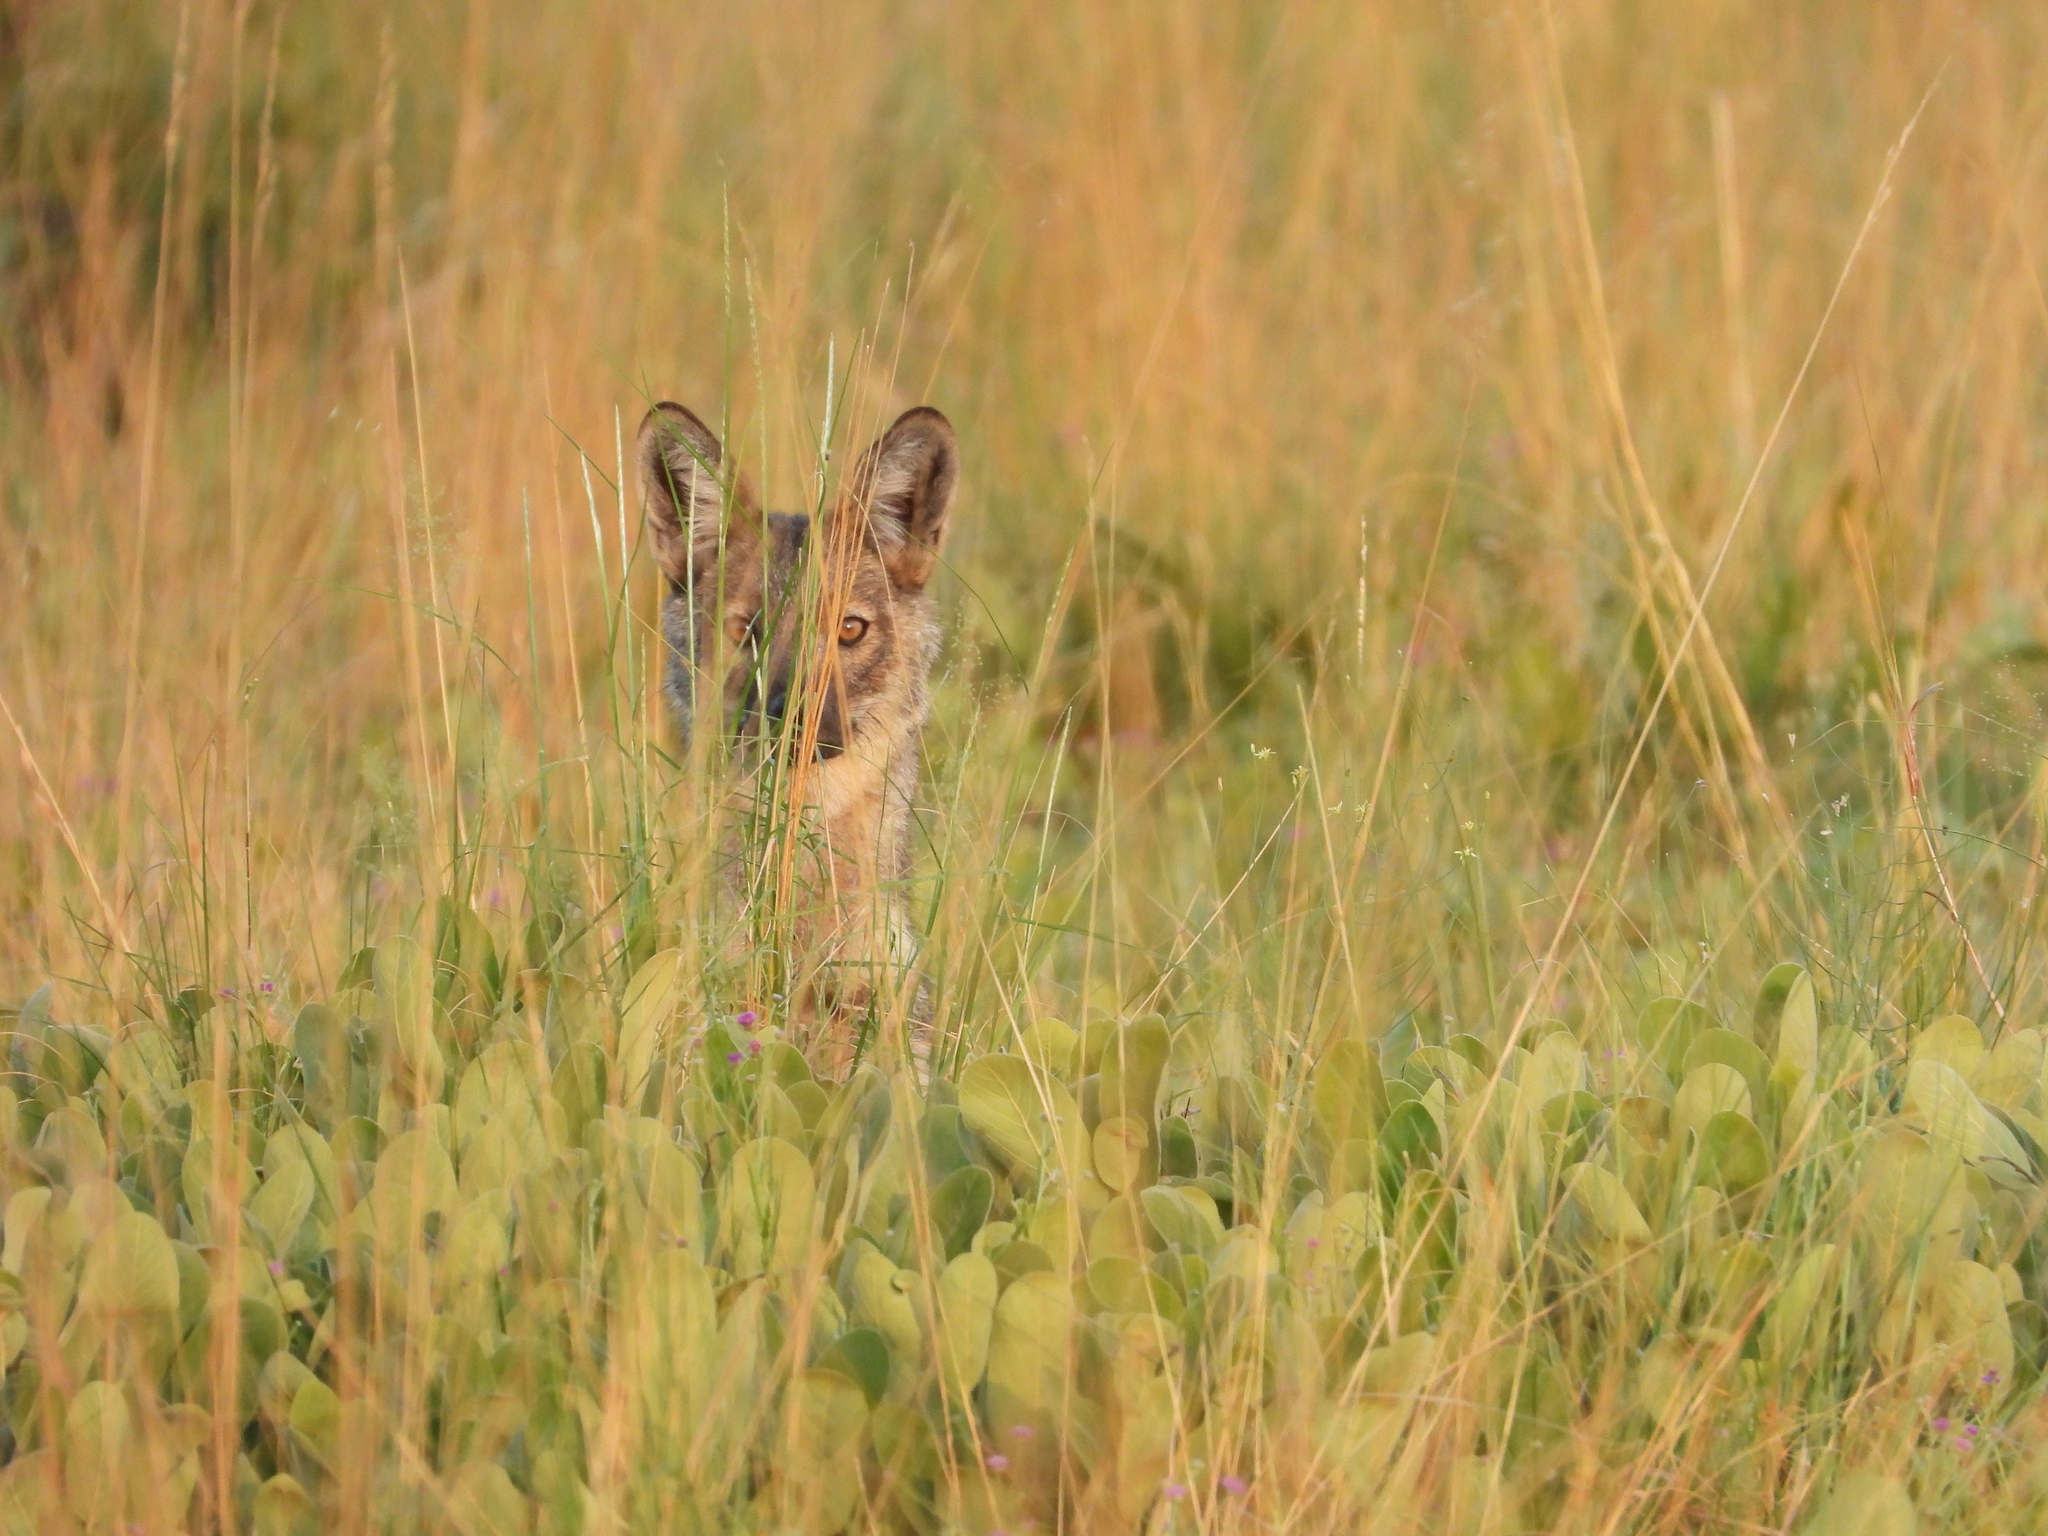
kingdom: Animalia
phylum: Chordata
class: Mammalia
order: Carnivora
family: Canidae
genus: Lupulella
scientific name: Lupulella
